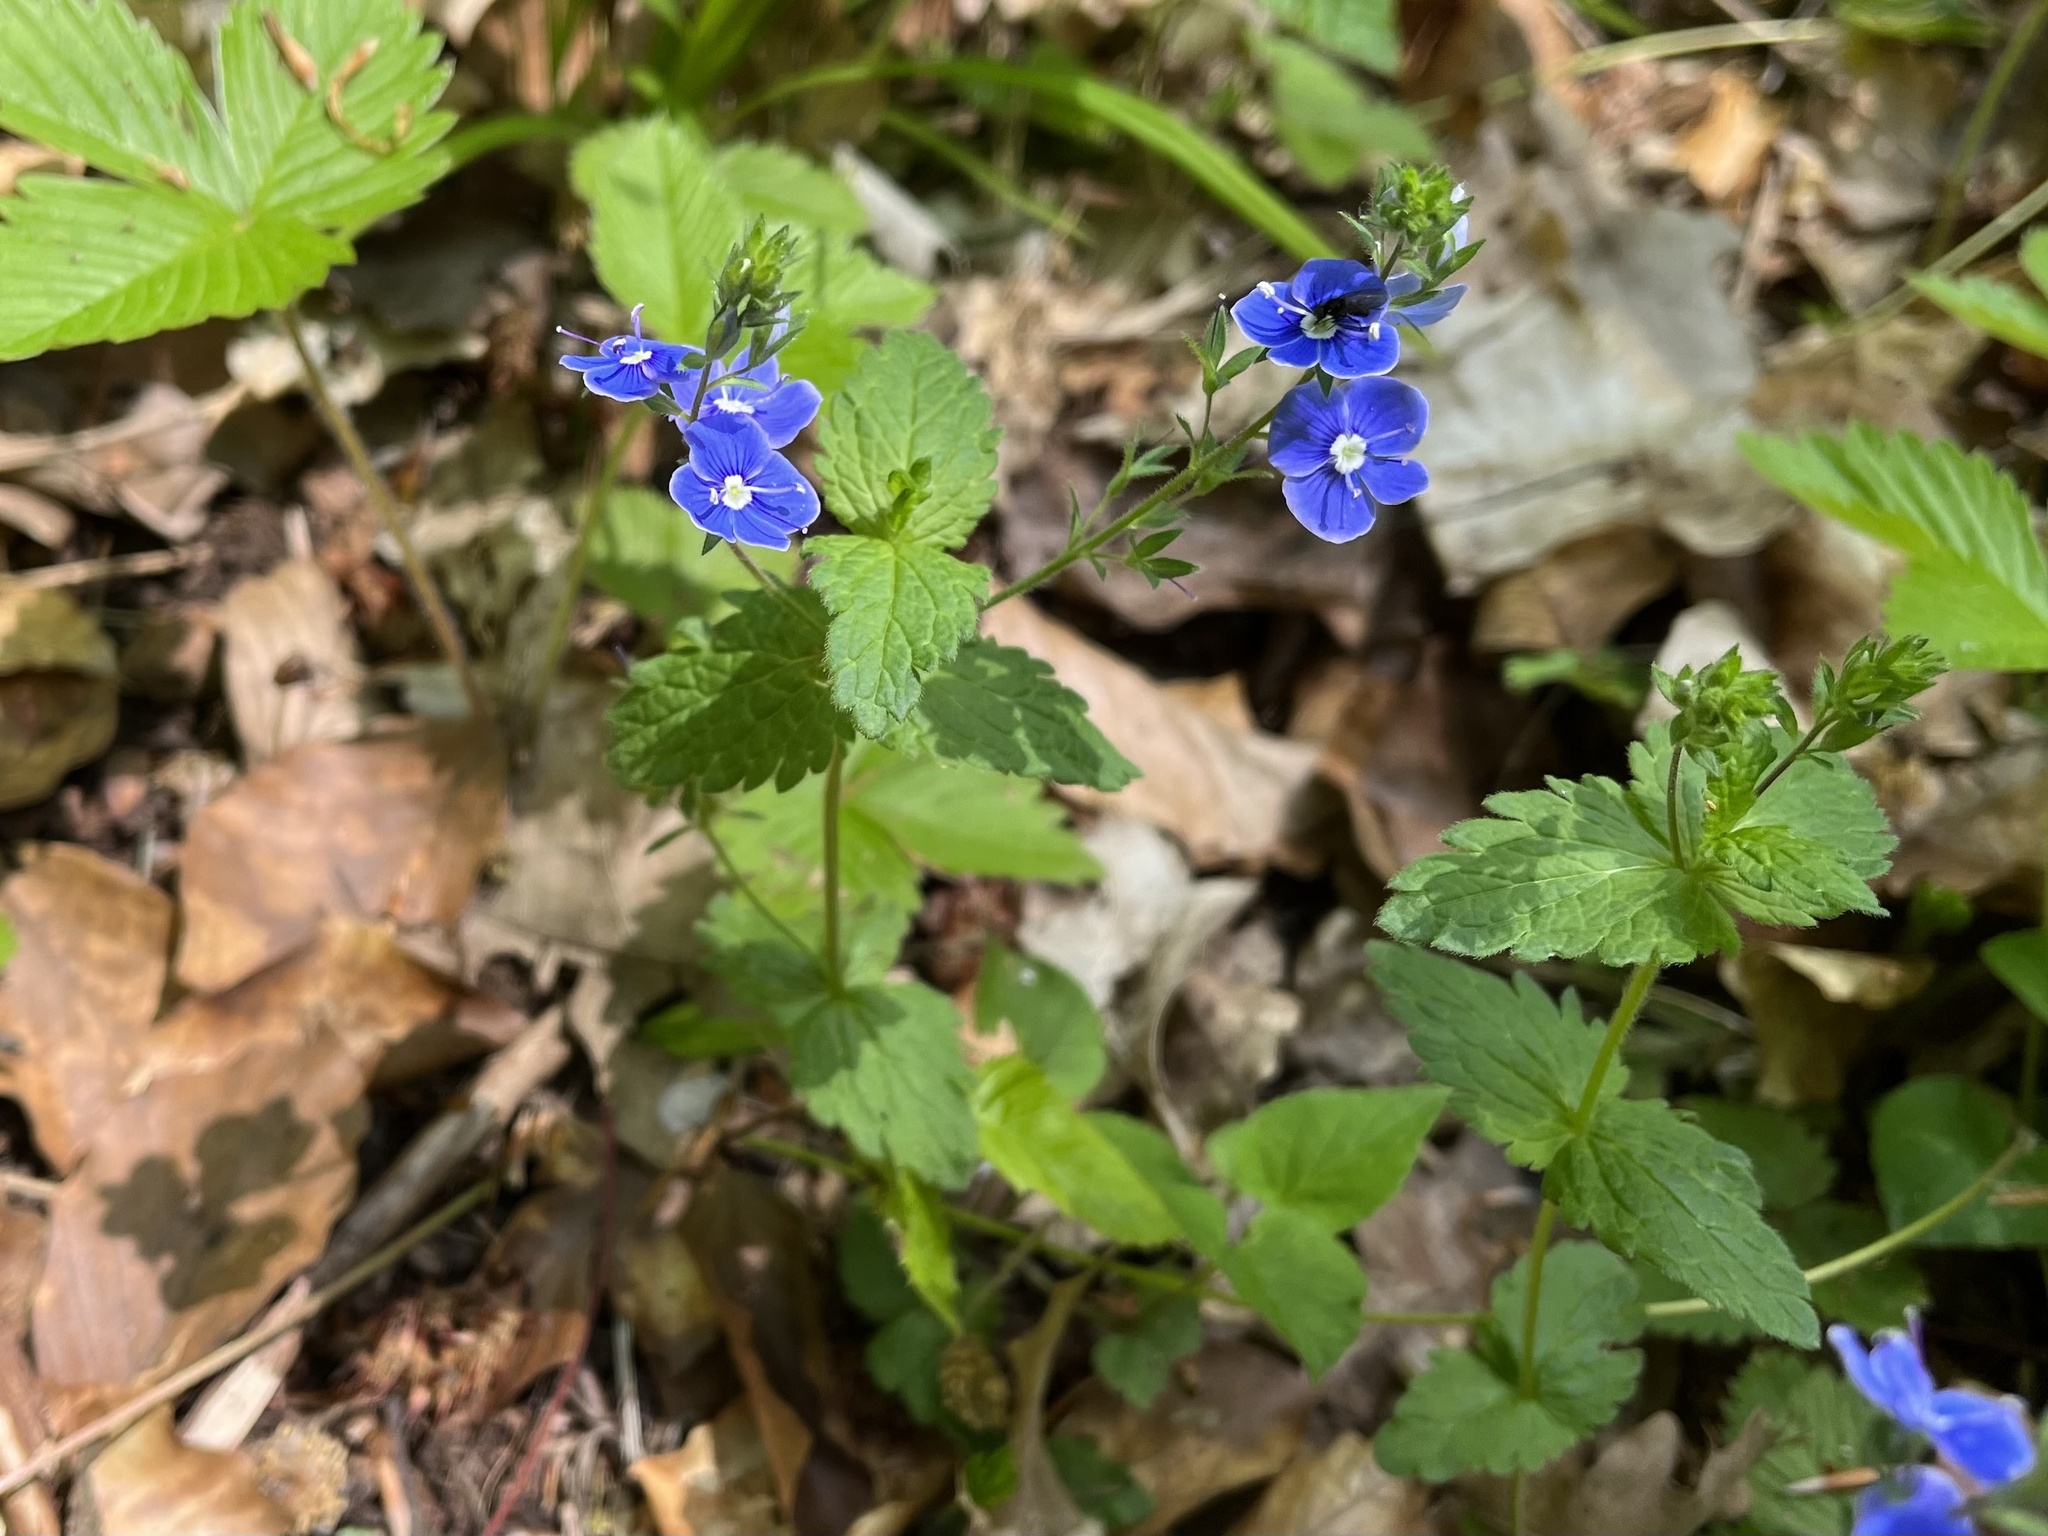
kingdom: Plantae
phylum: Tracheophyta
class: Magnoliopsida
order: Lamiales
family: Plantaginaceae
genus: Veronica
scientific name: Veronica chamaedrys
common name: Germander speedwell
